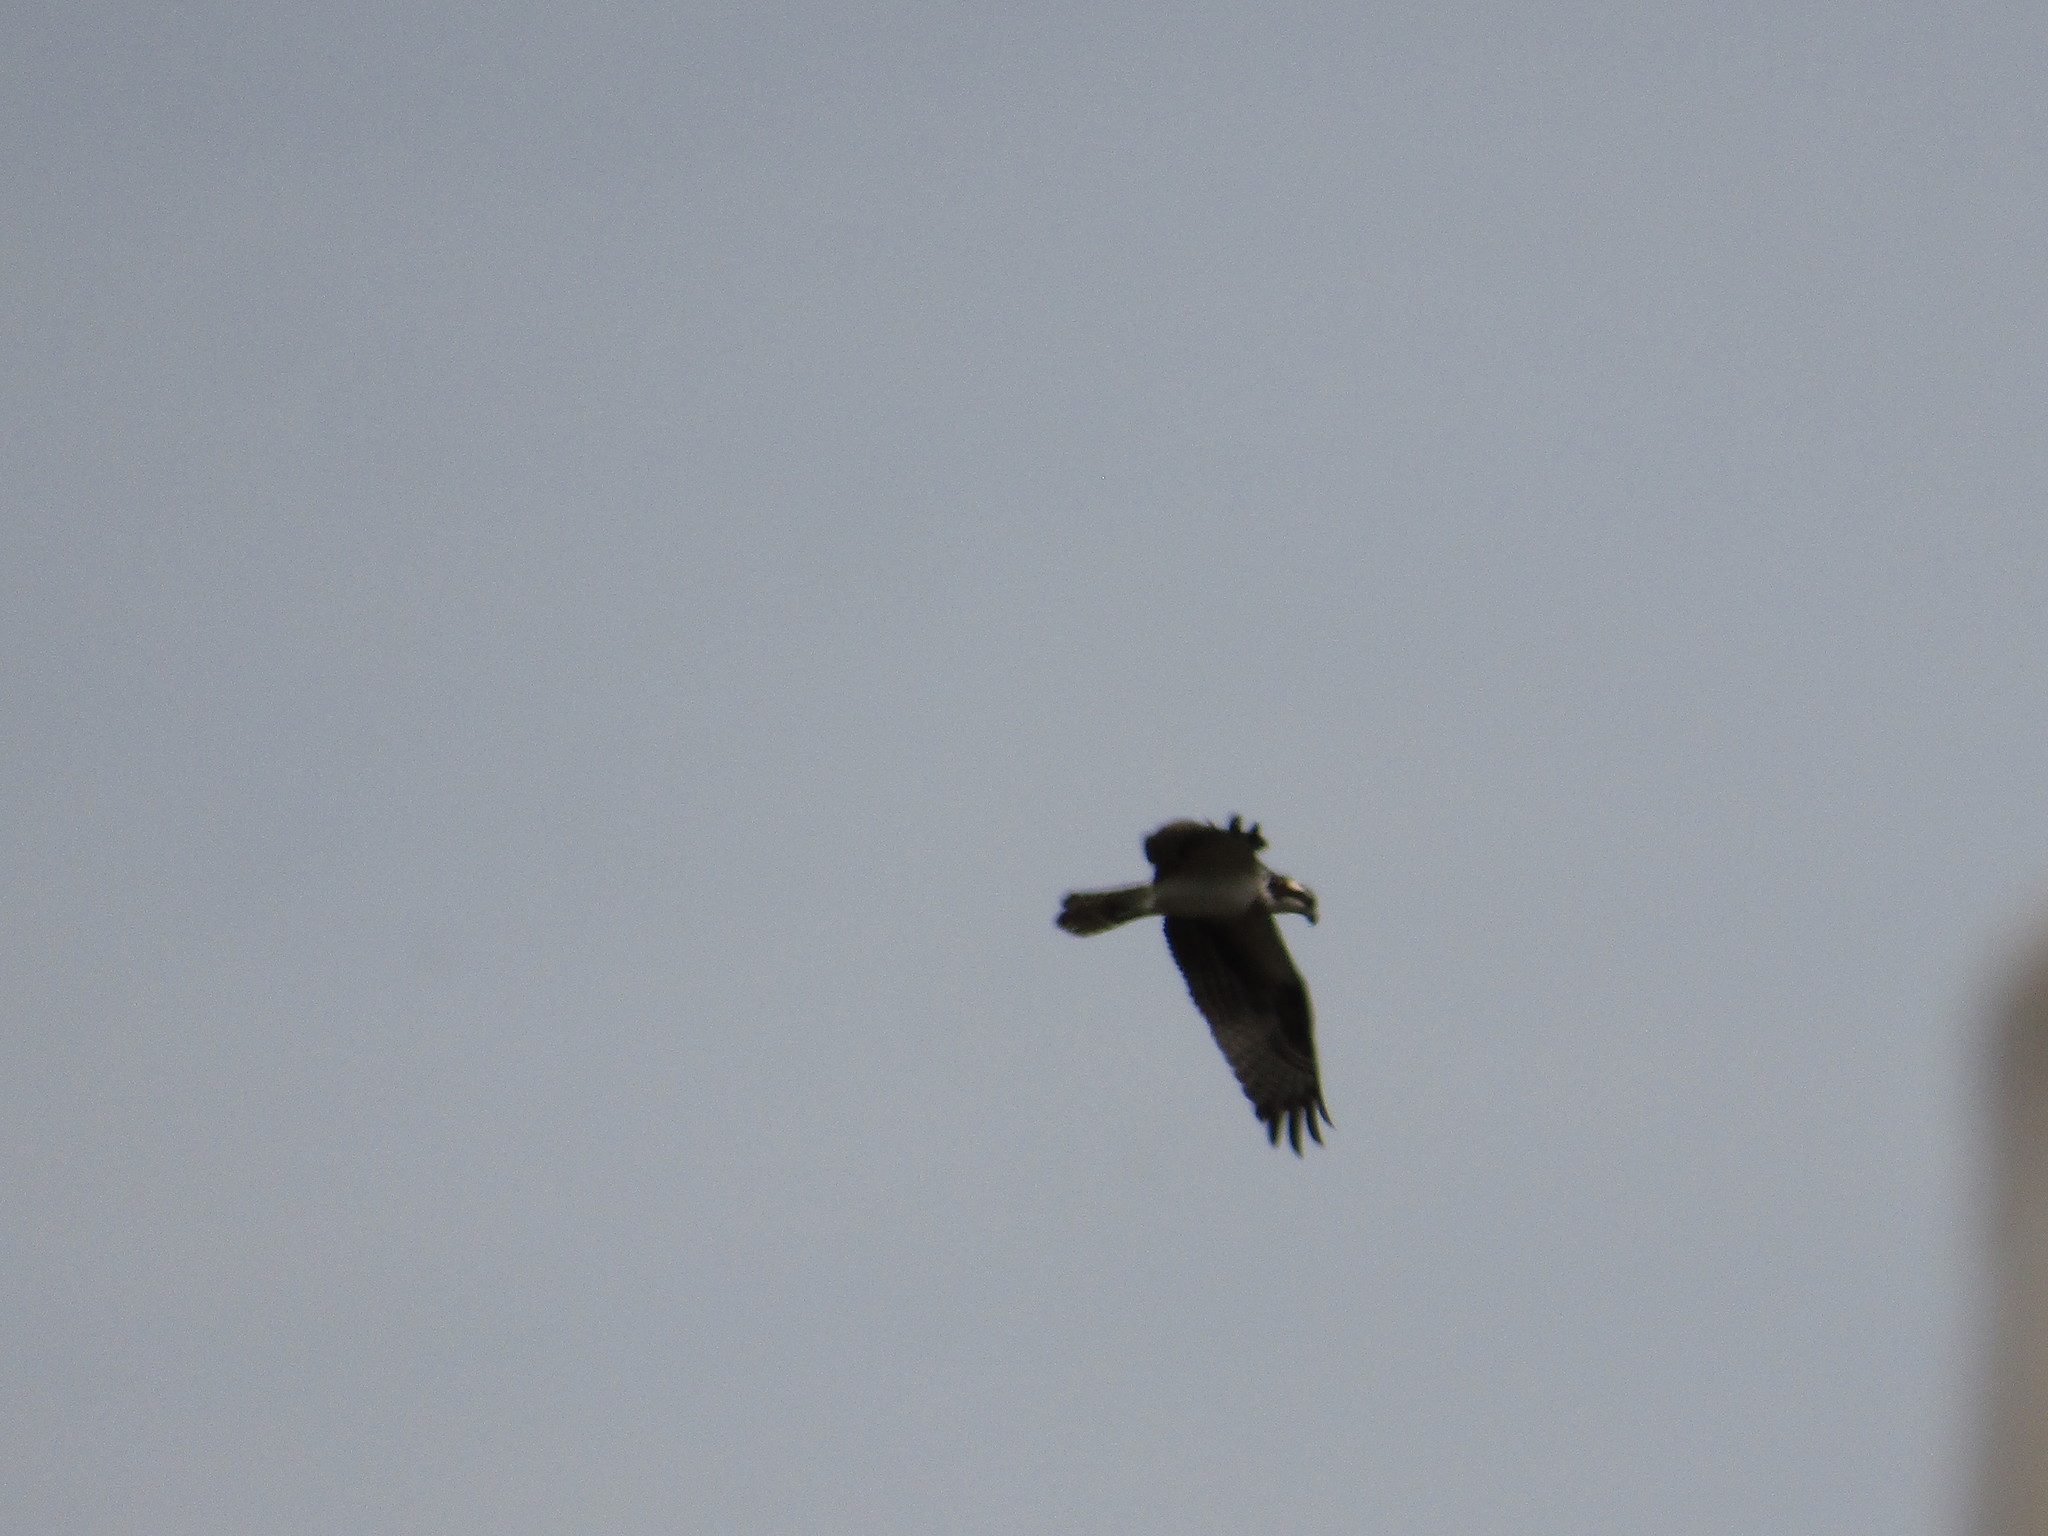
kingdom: Animalia
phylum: Chordata
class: Aves
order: Accipitriformes
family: Pandionidae
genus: Pandion
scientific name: Pandion haliaetus
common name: Osprey
